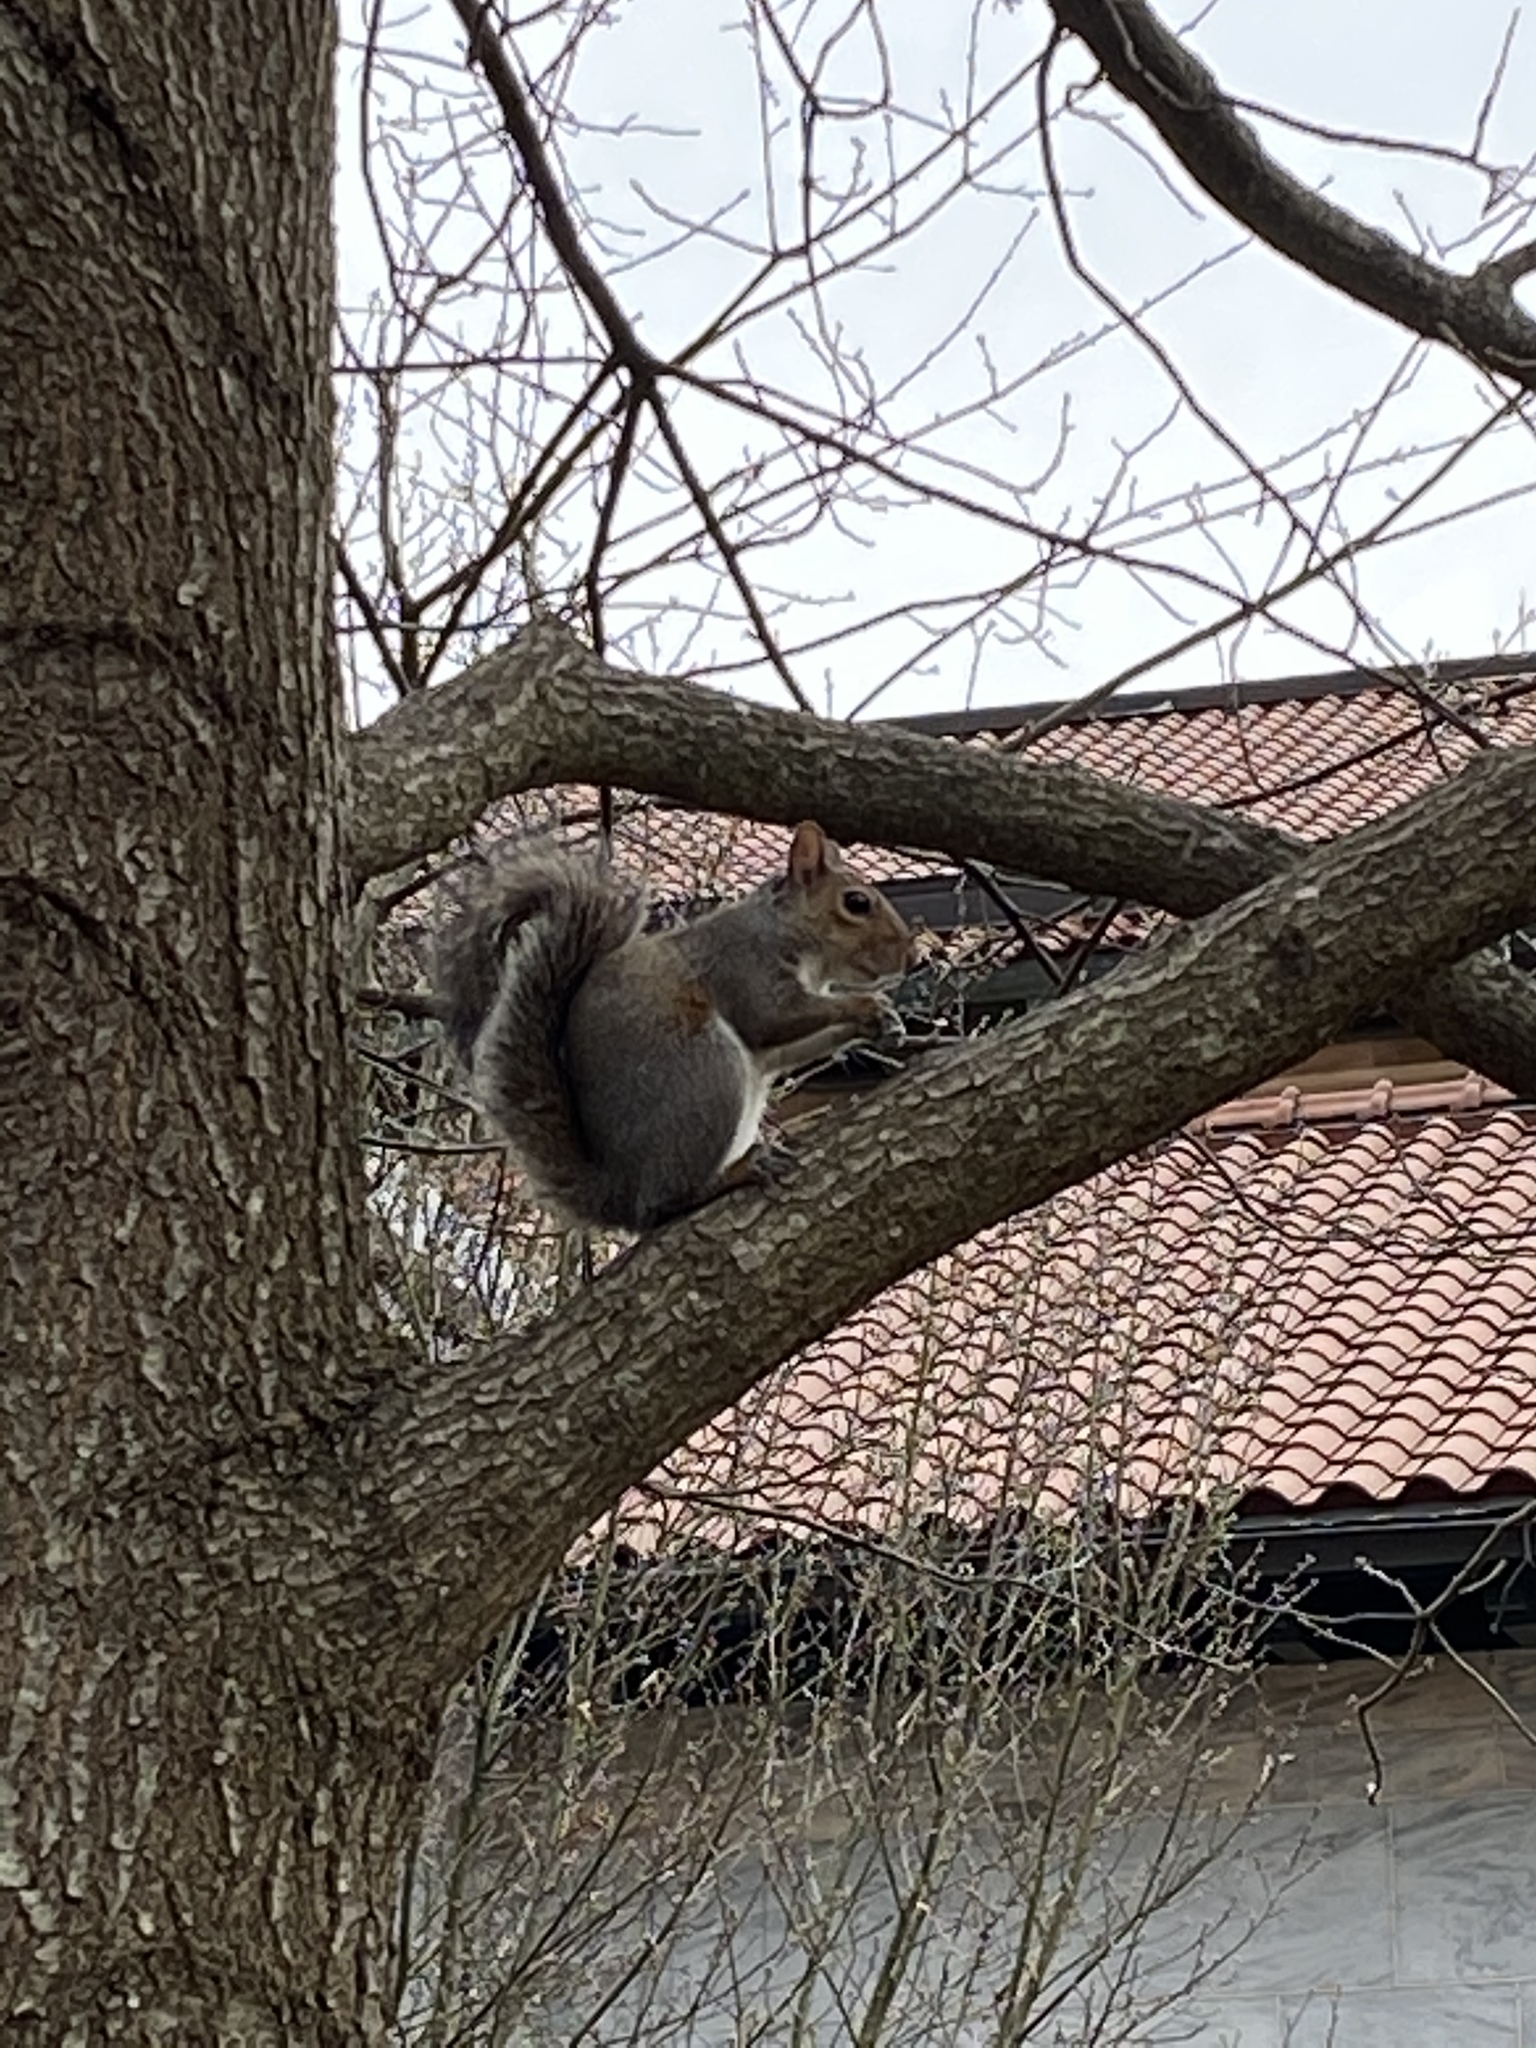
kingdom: Animalia
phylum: Chordata
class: Mammalia
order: Rodentia
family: Sciuridae
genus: Sciurus
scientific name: Sciurus carolinensis
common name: Eastern gray squirrel
